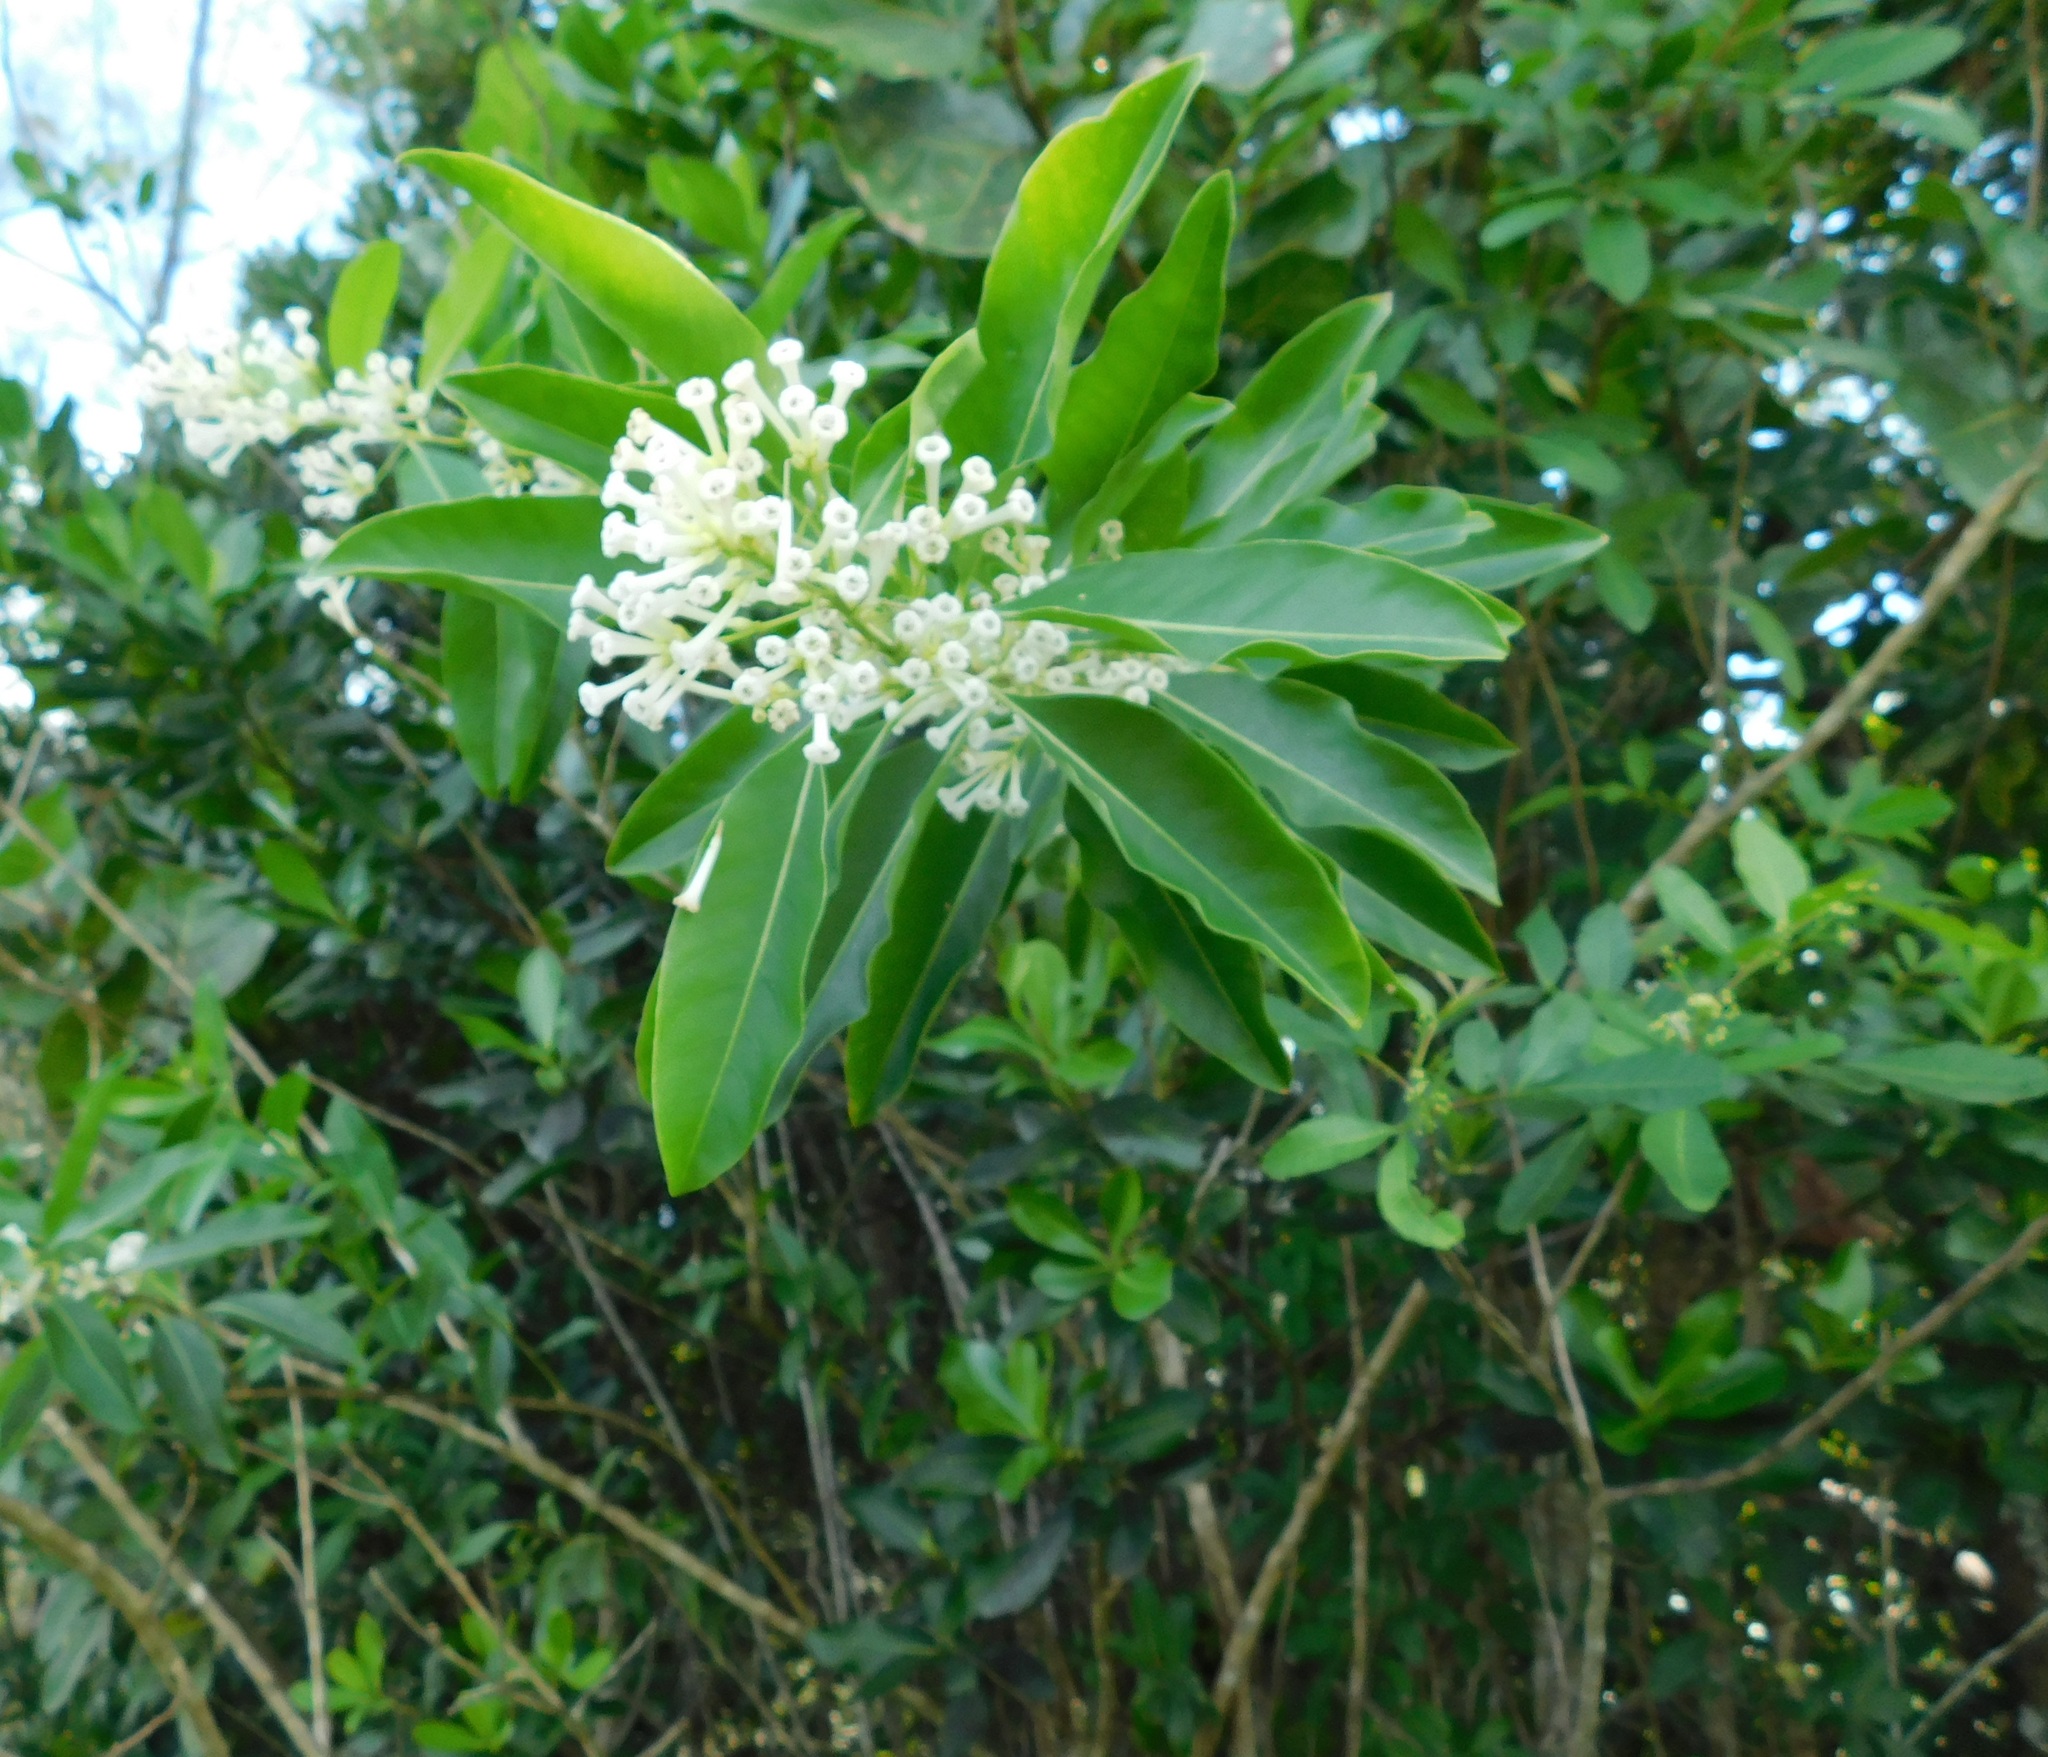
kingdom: Plantae
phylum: Tracheophyta
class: Magnoliopsida
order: Solanales
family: Solanaceae
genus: Cestrum
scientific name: Cestrum diurnum
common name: Day jessamine
